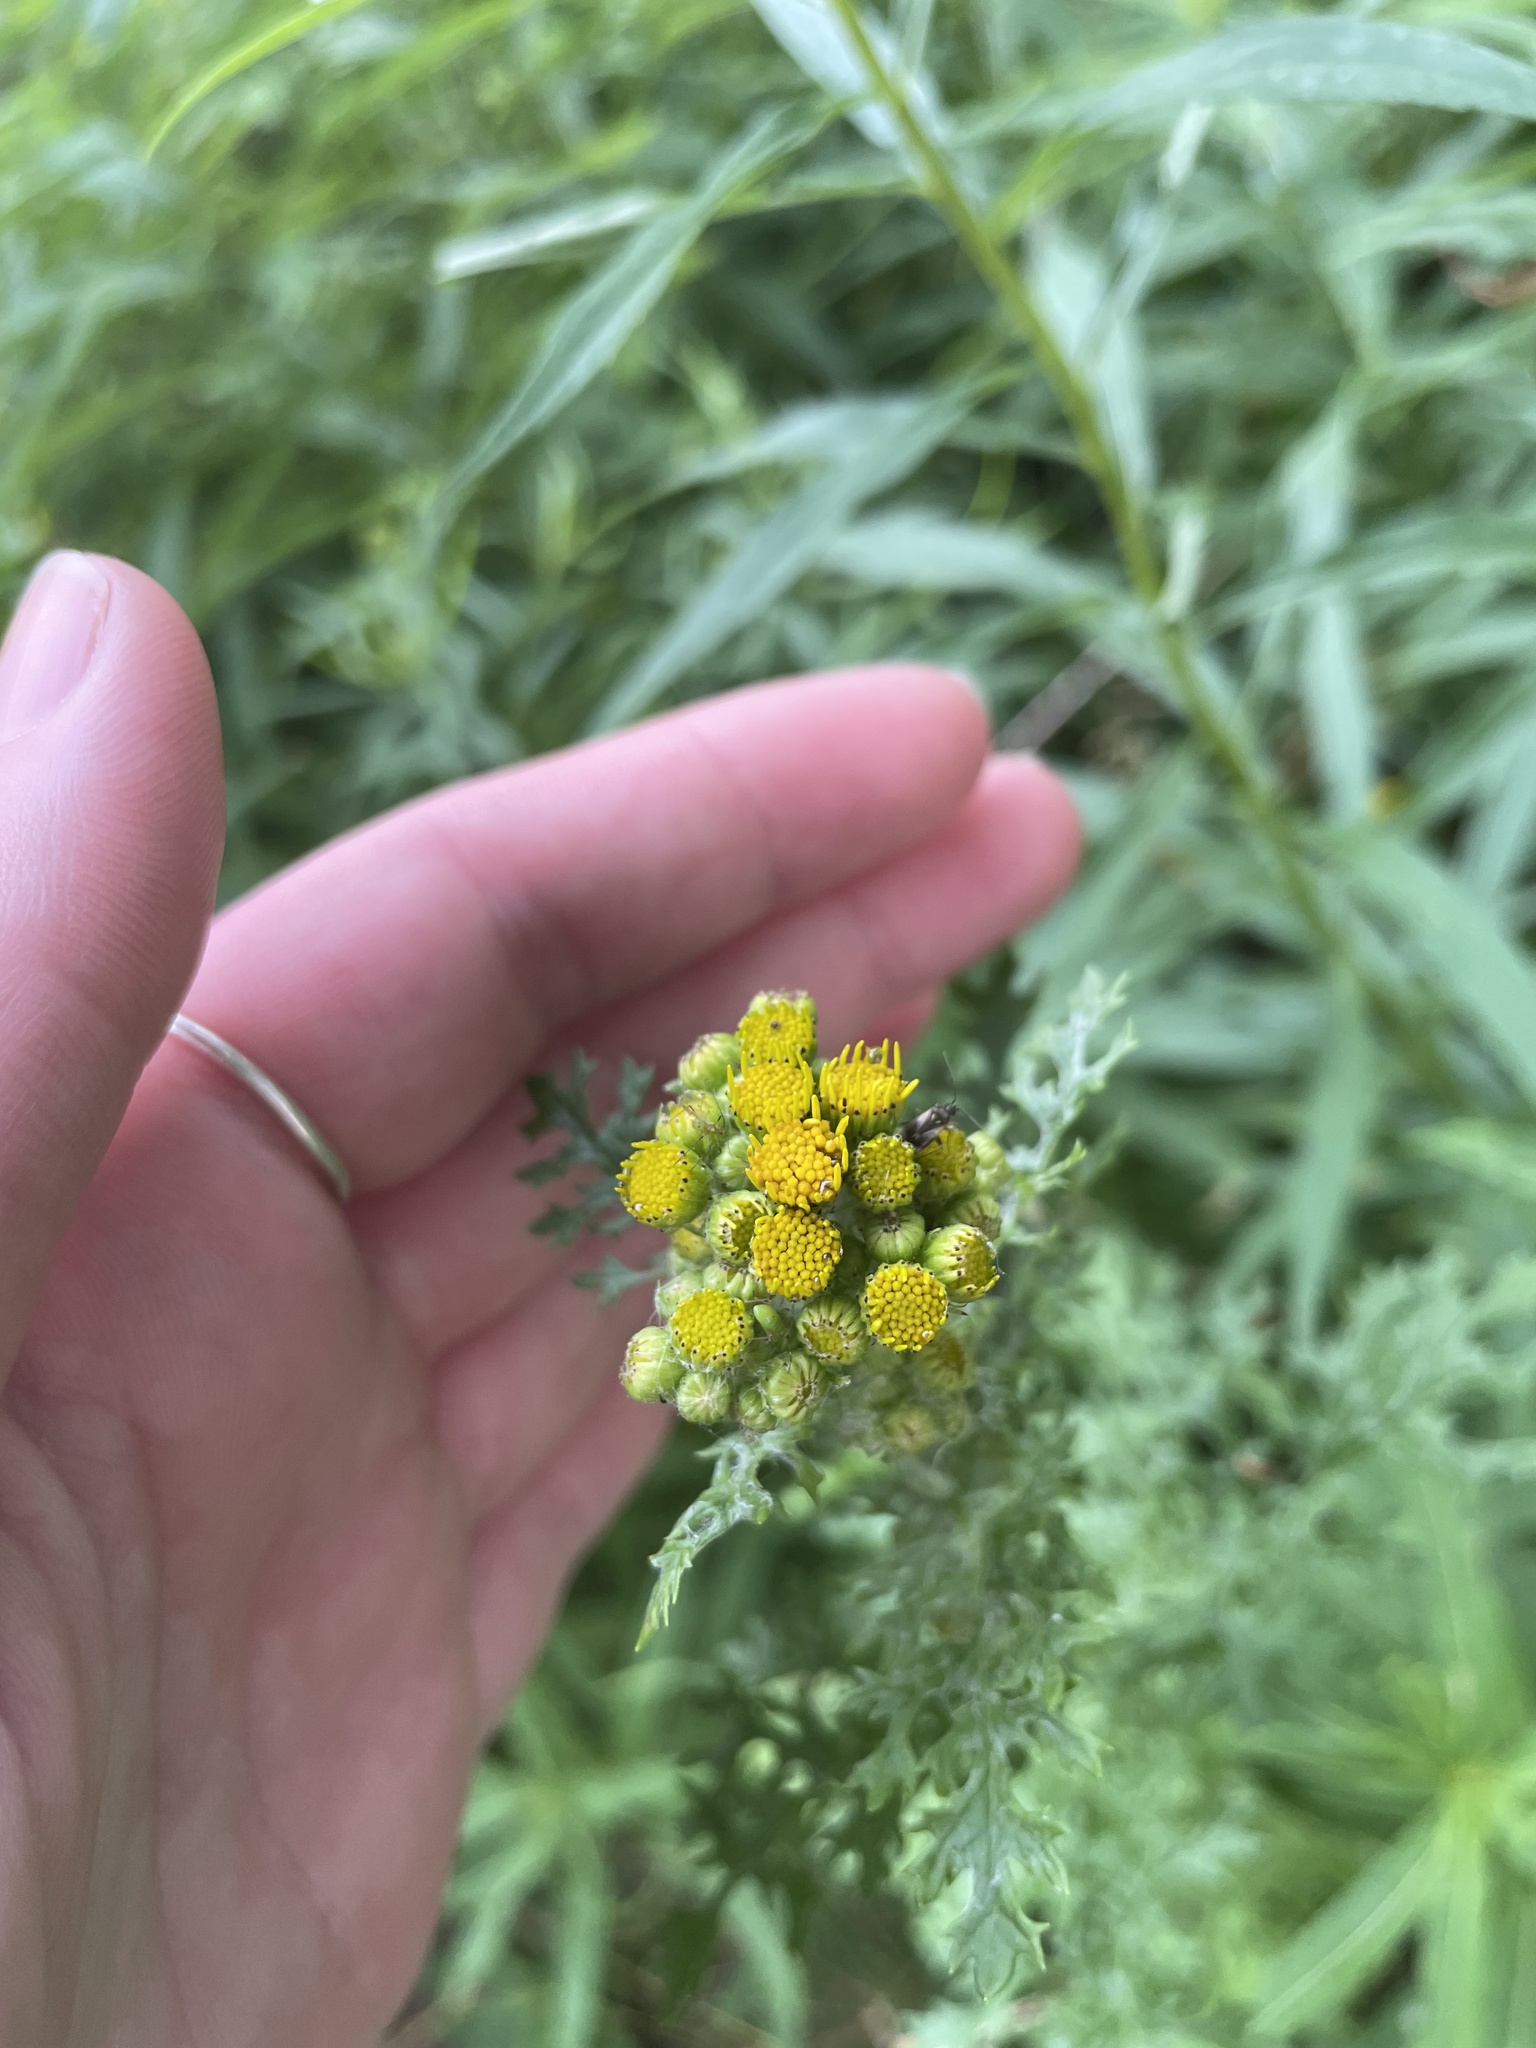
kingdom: Plantae
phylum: Tracheophyta
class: Magnoliopsida
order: Asterales
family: Asteraceae
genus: Jacobaea
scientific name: Jacobaea vulgaris
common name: Stinking willie
